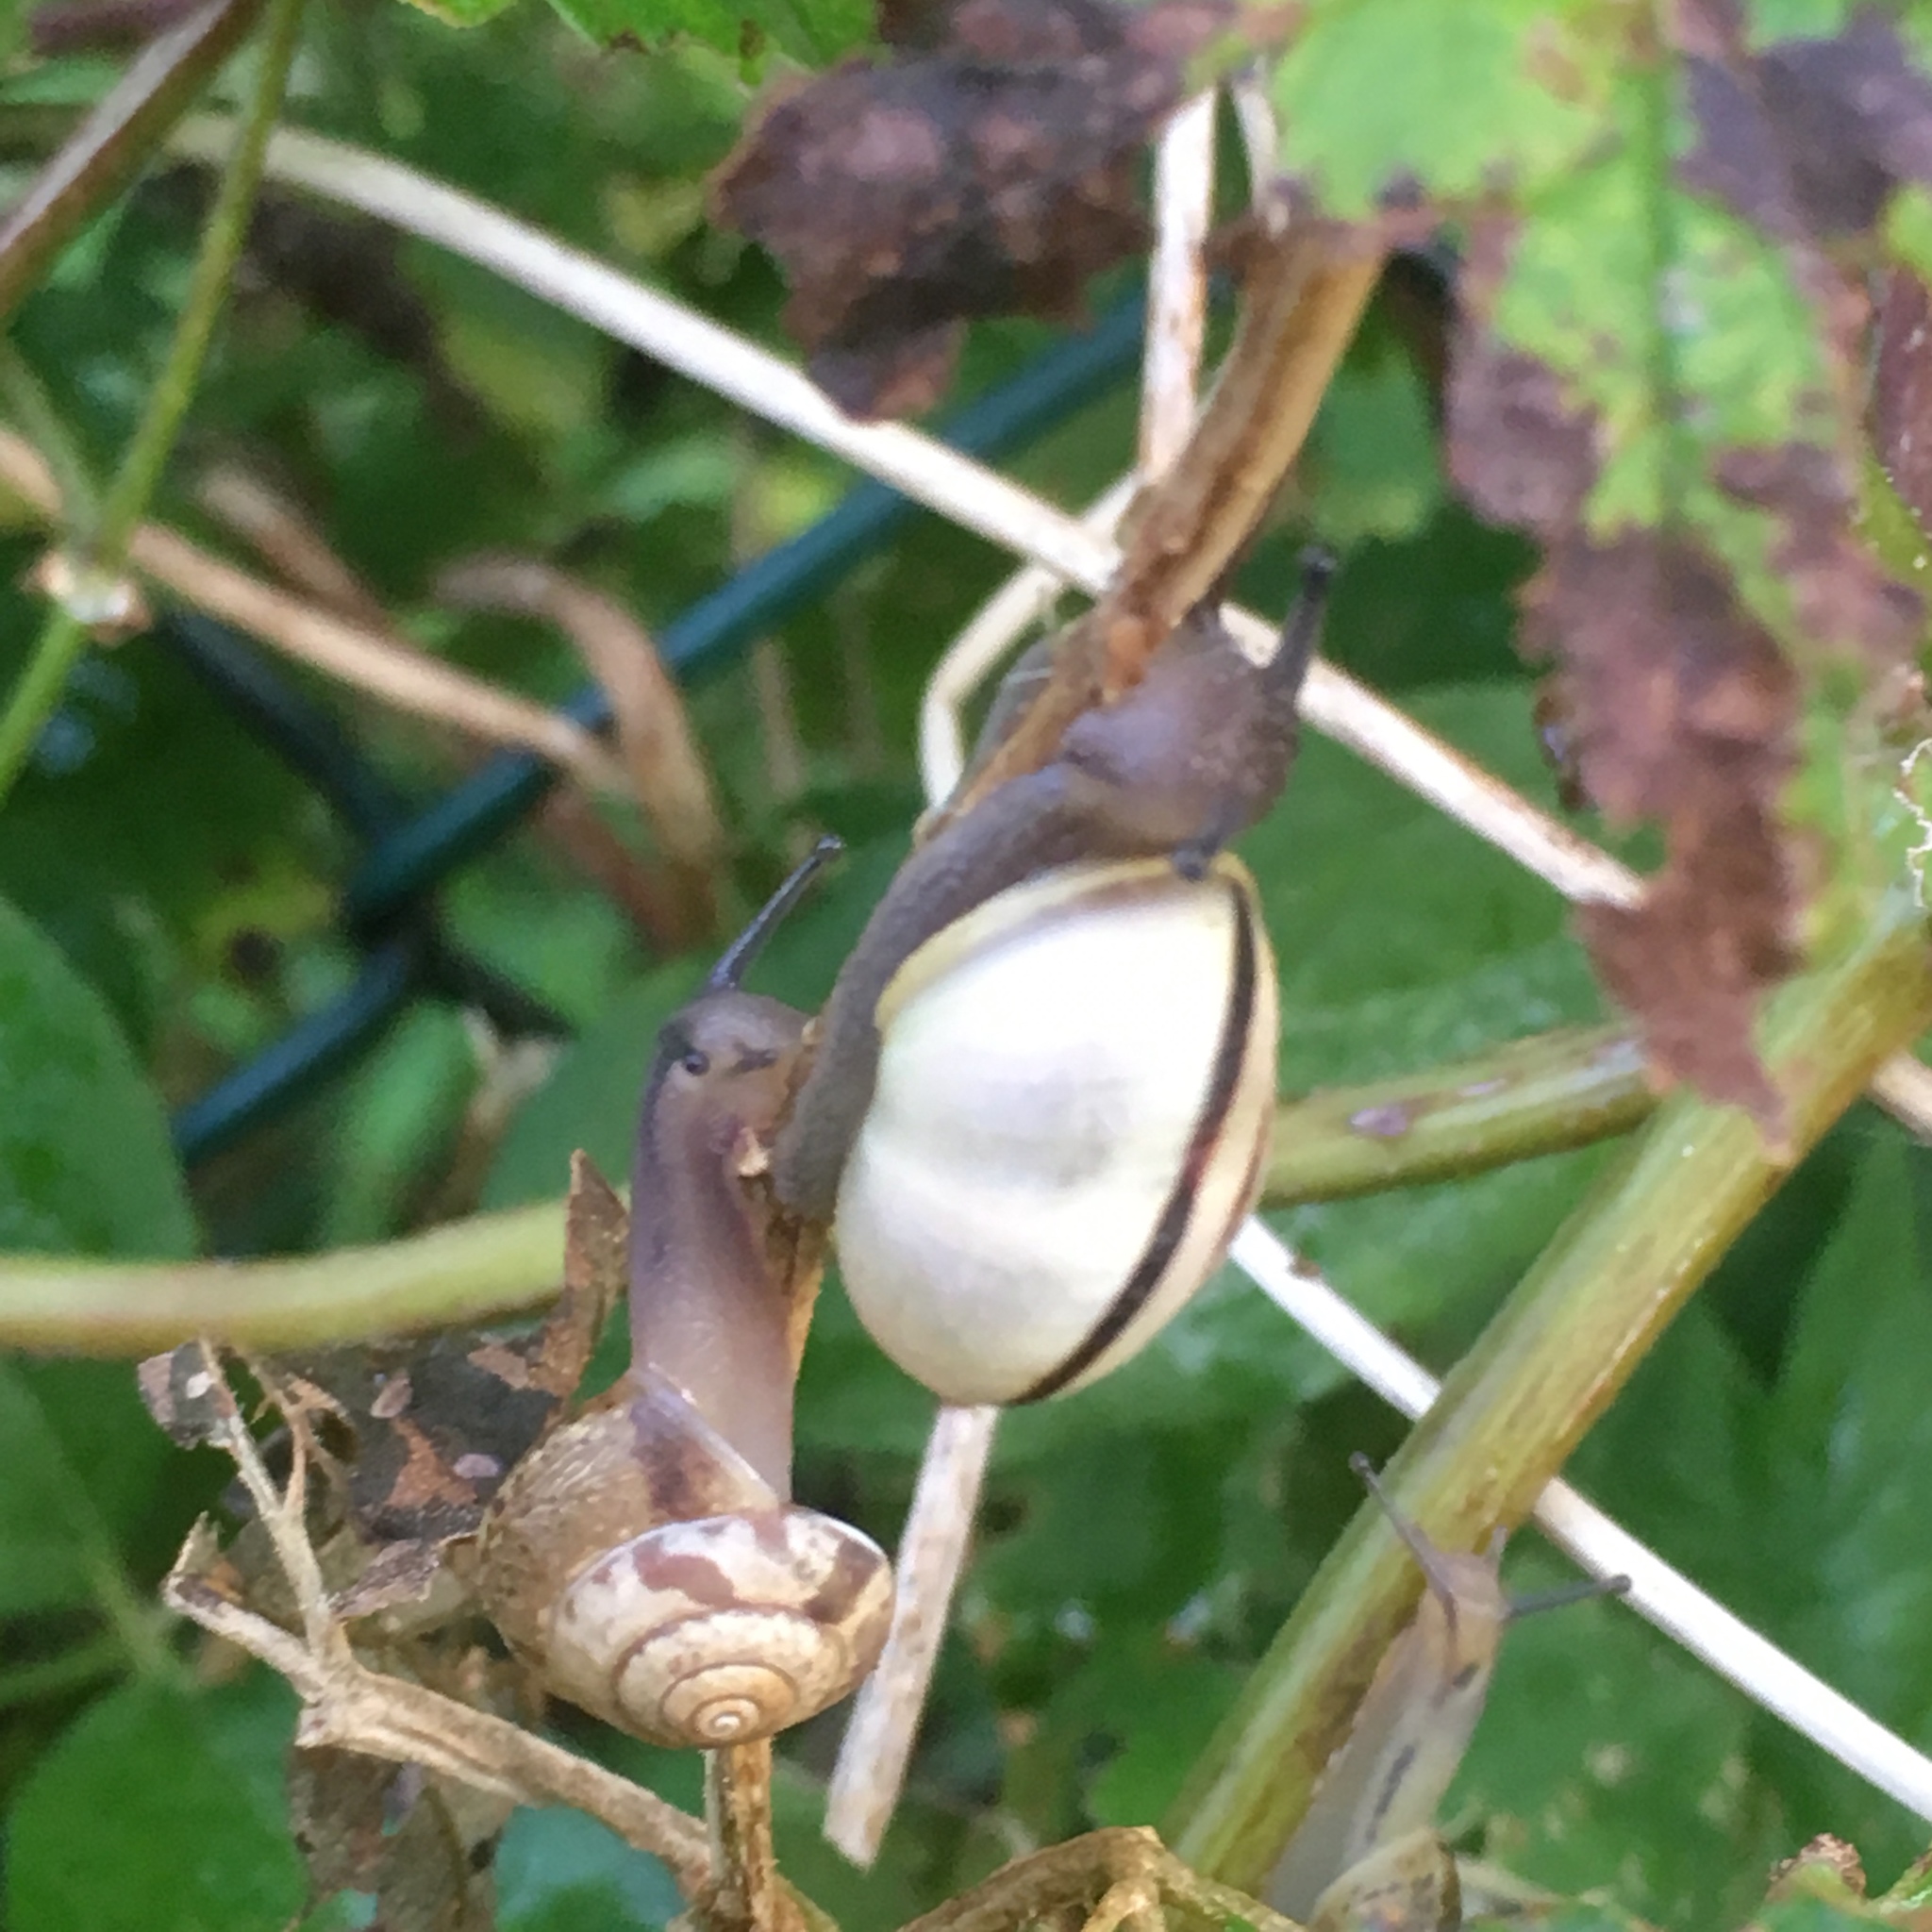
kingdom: Animalia
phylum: Mollusca
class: Gastropoda
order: Stylommatophora
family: Helicidae
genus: Cepaea
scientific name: Cepaea nemoralis
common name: Grovesnail
